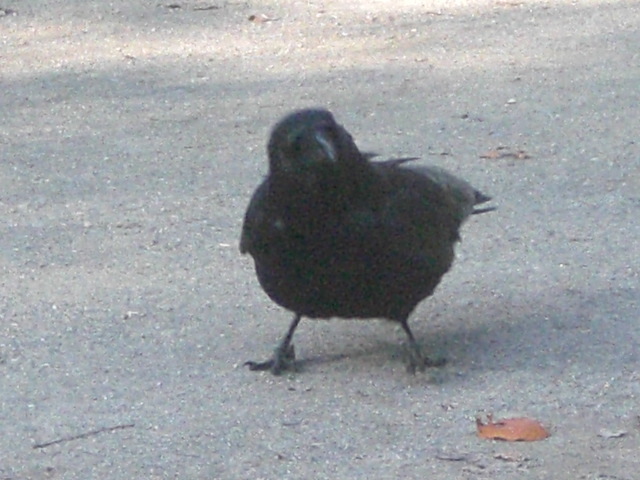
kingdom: Animalia
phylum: Chordata
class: Aves
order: Passeriformes
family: Corvidae
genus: Corvus
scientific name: Corvus corone
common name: Carrion crow
